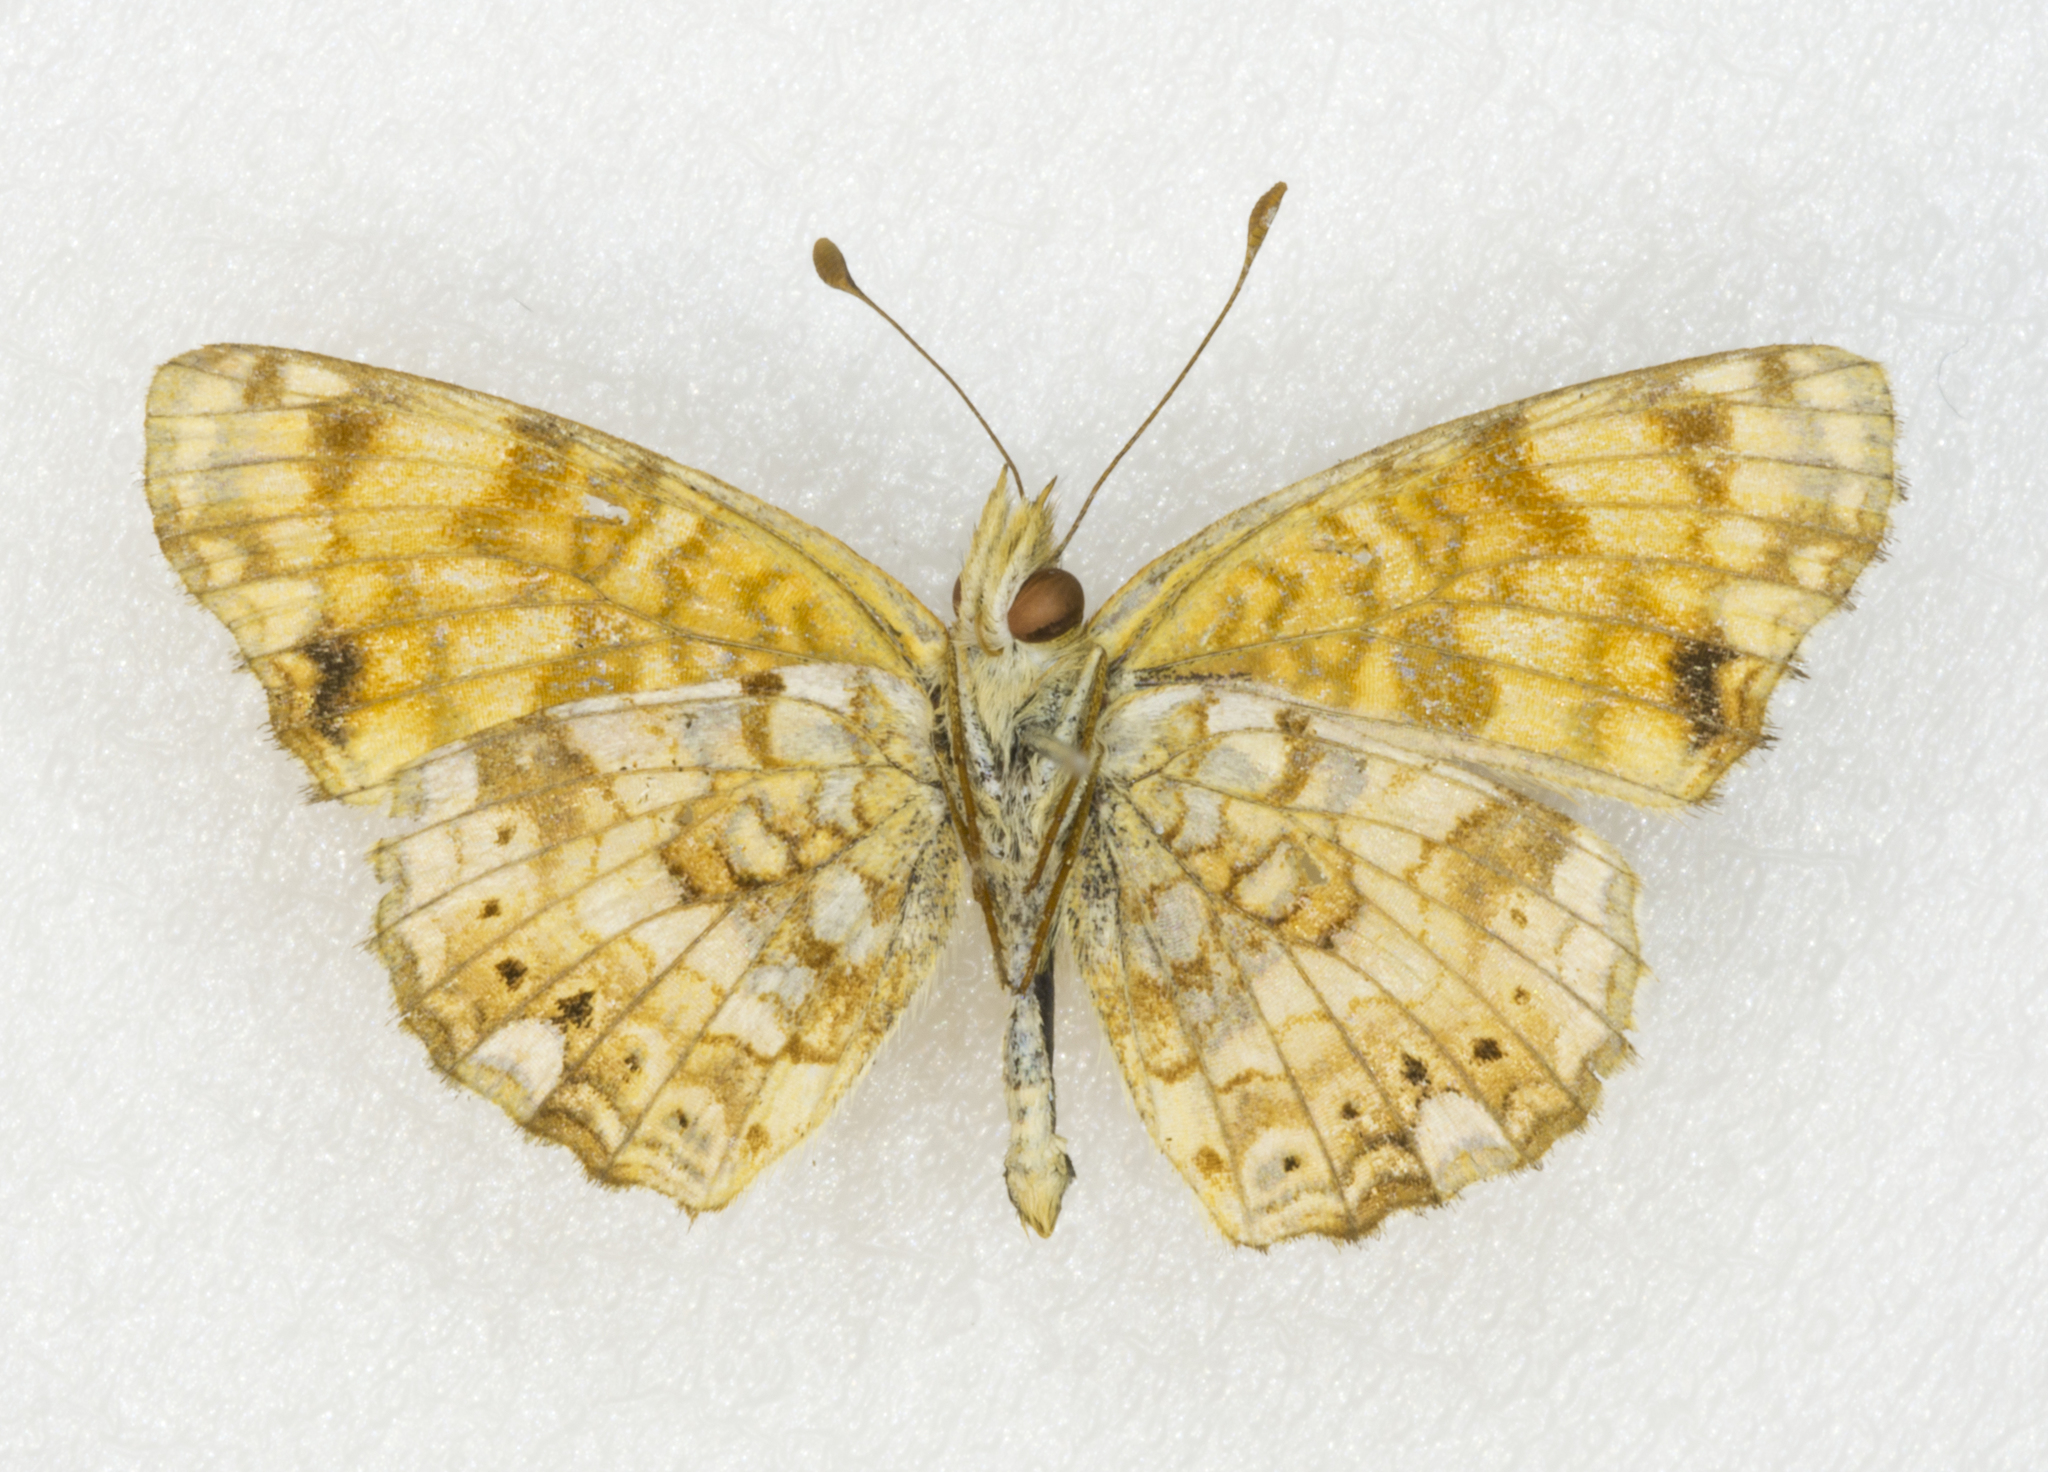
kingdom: Animalia
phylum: Arthropoda
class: Insecta
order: Lepidoptera
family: Nymphalidae
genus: Eresia
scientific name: Eresia aveyrona
